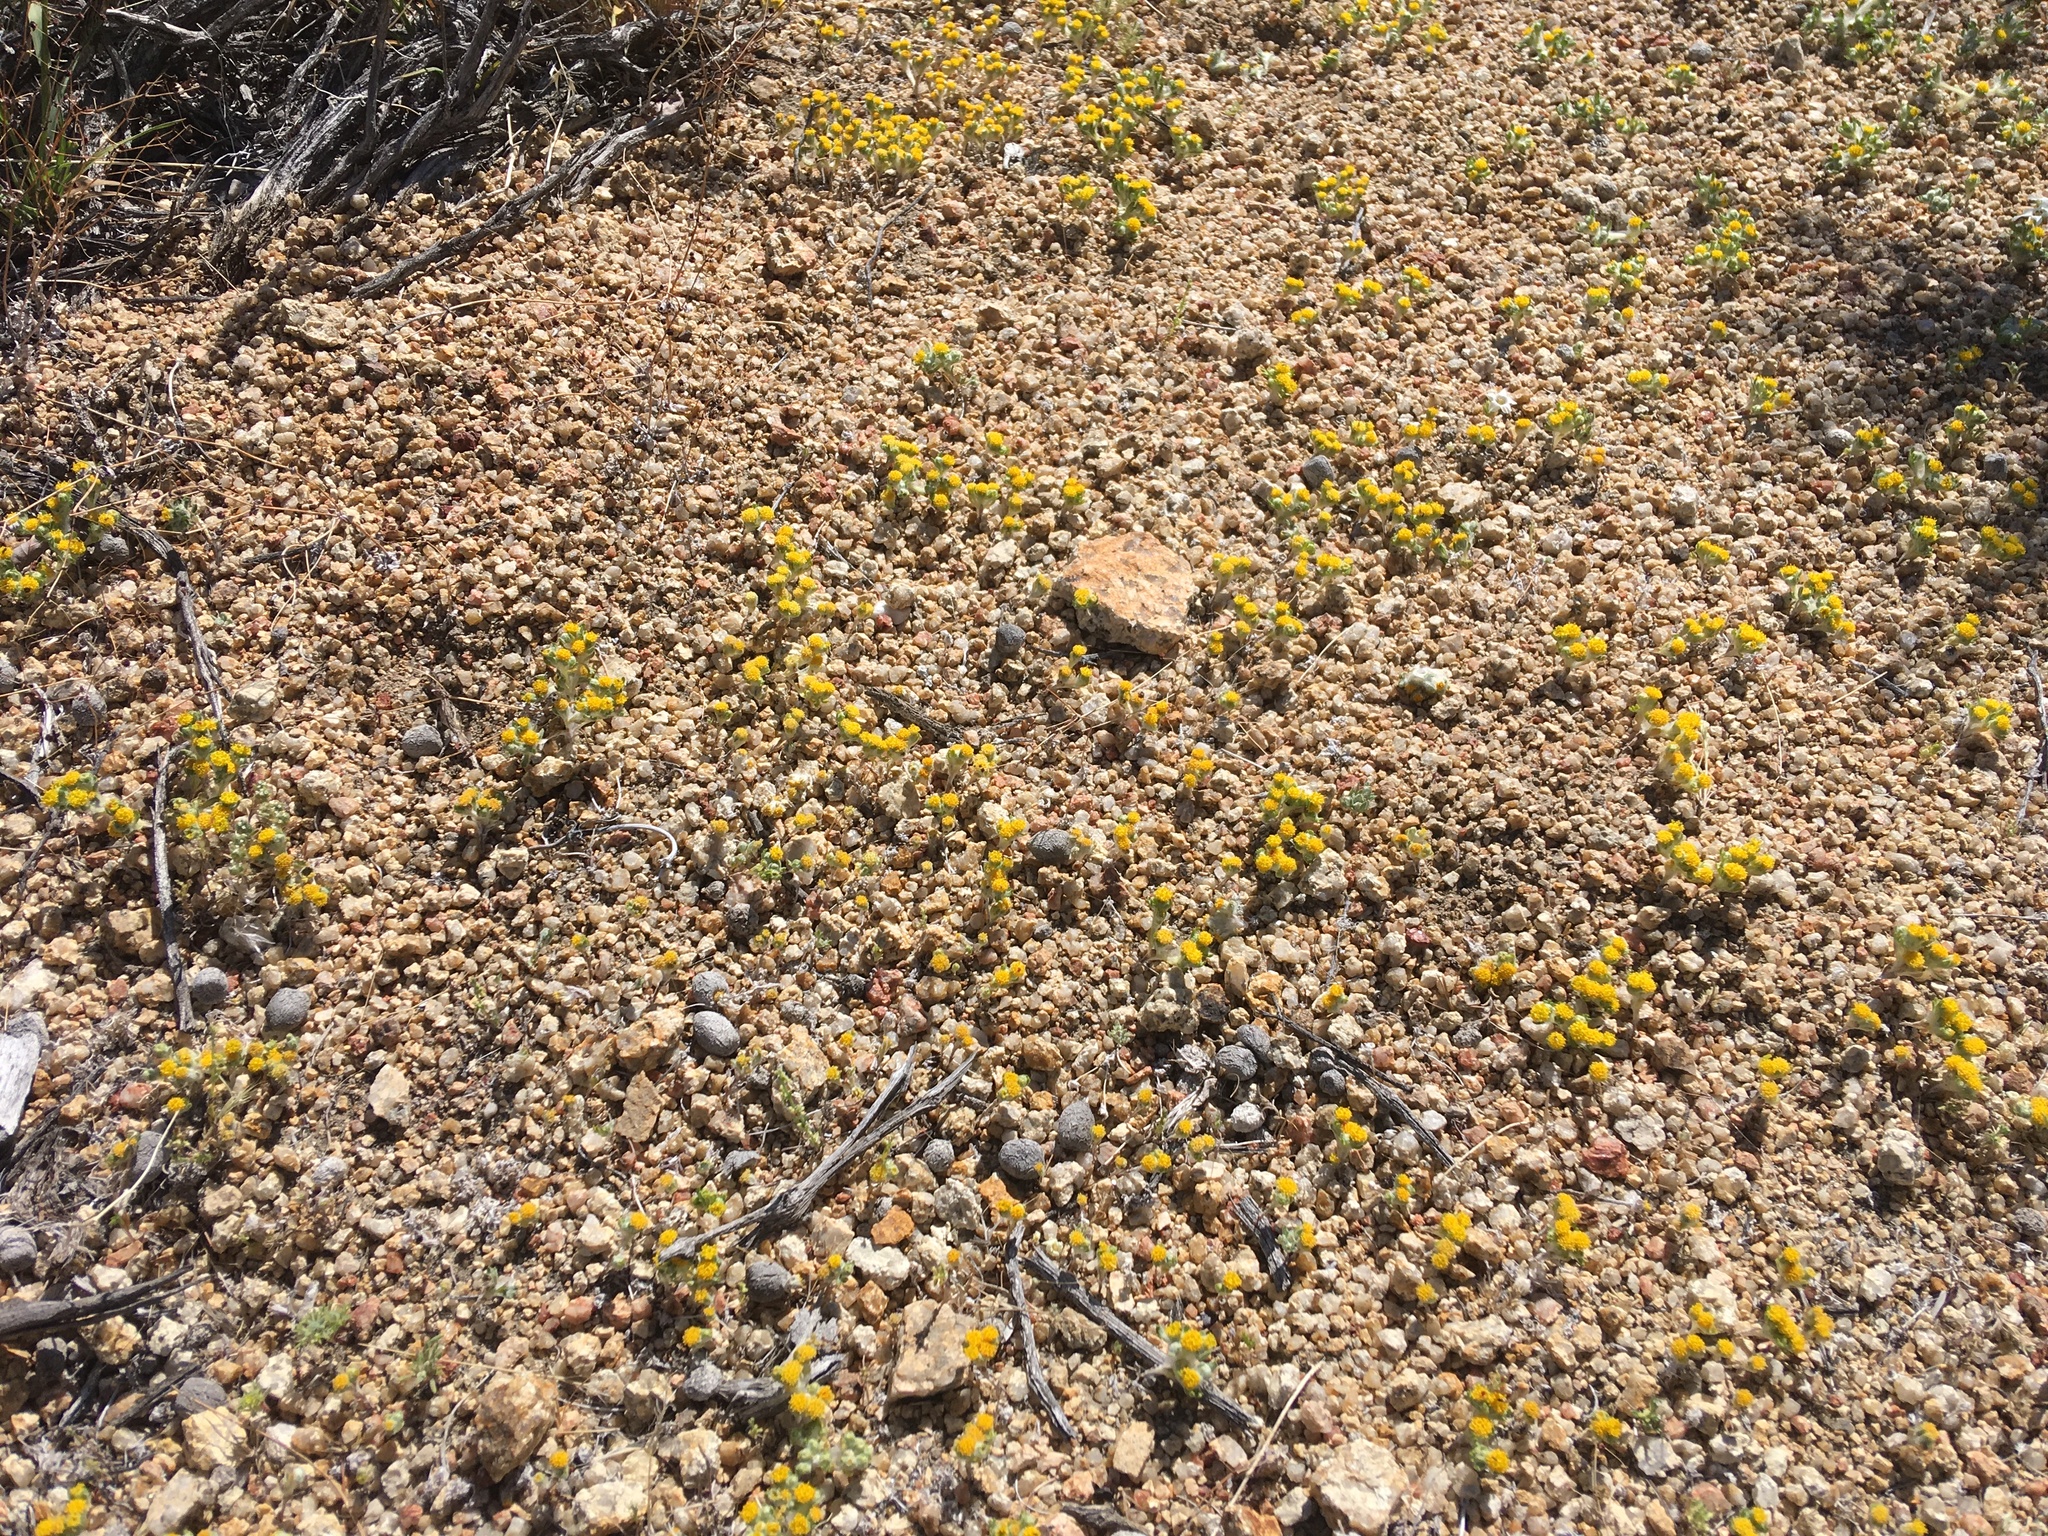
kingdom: Plantae
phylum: Tracheophyta
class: Magnoliopsida
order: Asterales
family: Asteraceae
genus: Eriophyllum
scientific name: Eriophyllum pringlei
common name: Pringle's woolly-sunflower
